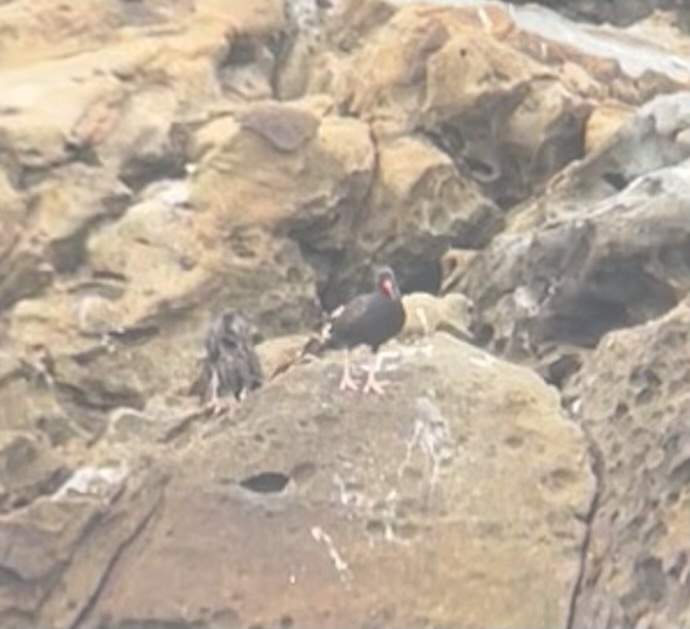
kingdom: Animalia
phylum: Chordata
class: Aves
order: Charadriiformes
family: Haematopodidae
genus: Haematopus
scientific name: Haematopus bachmani
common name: Black oystercatcher
